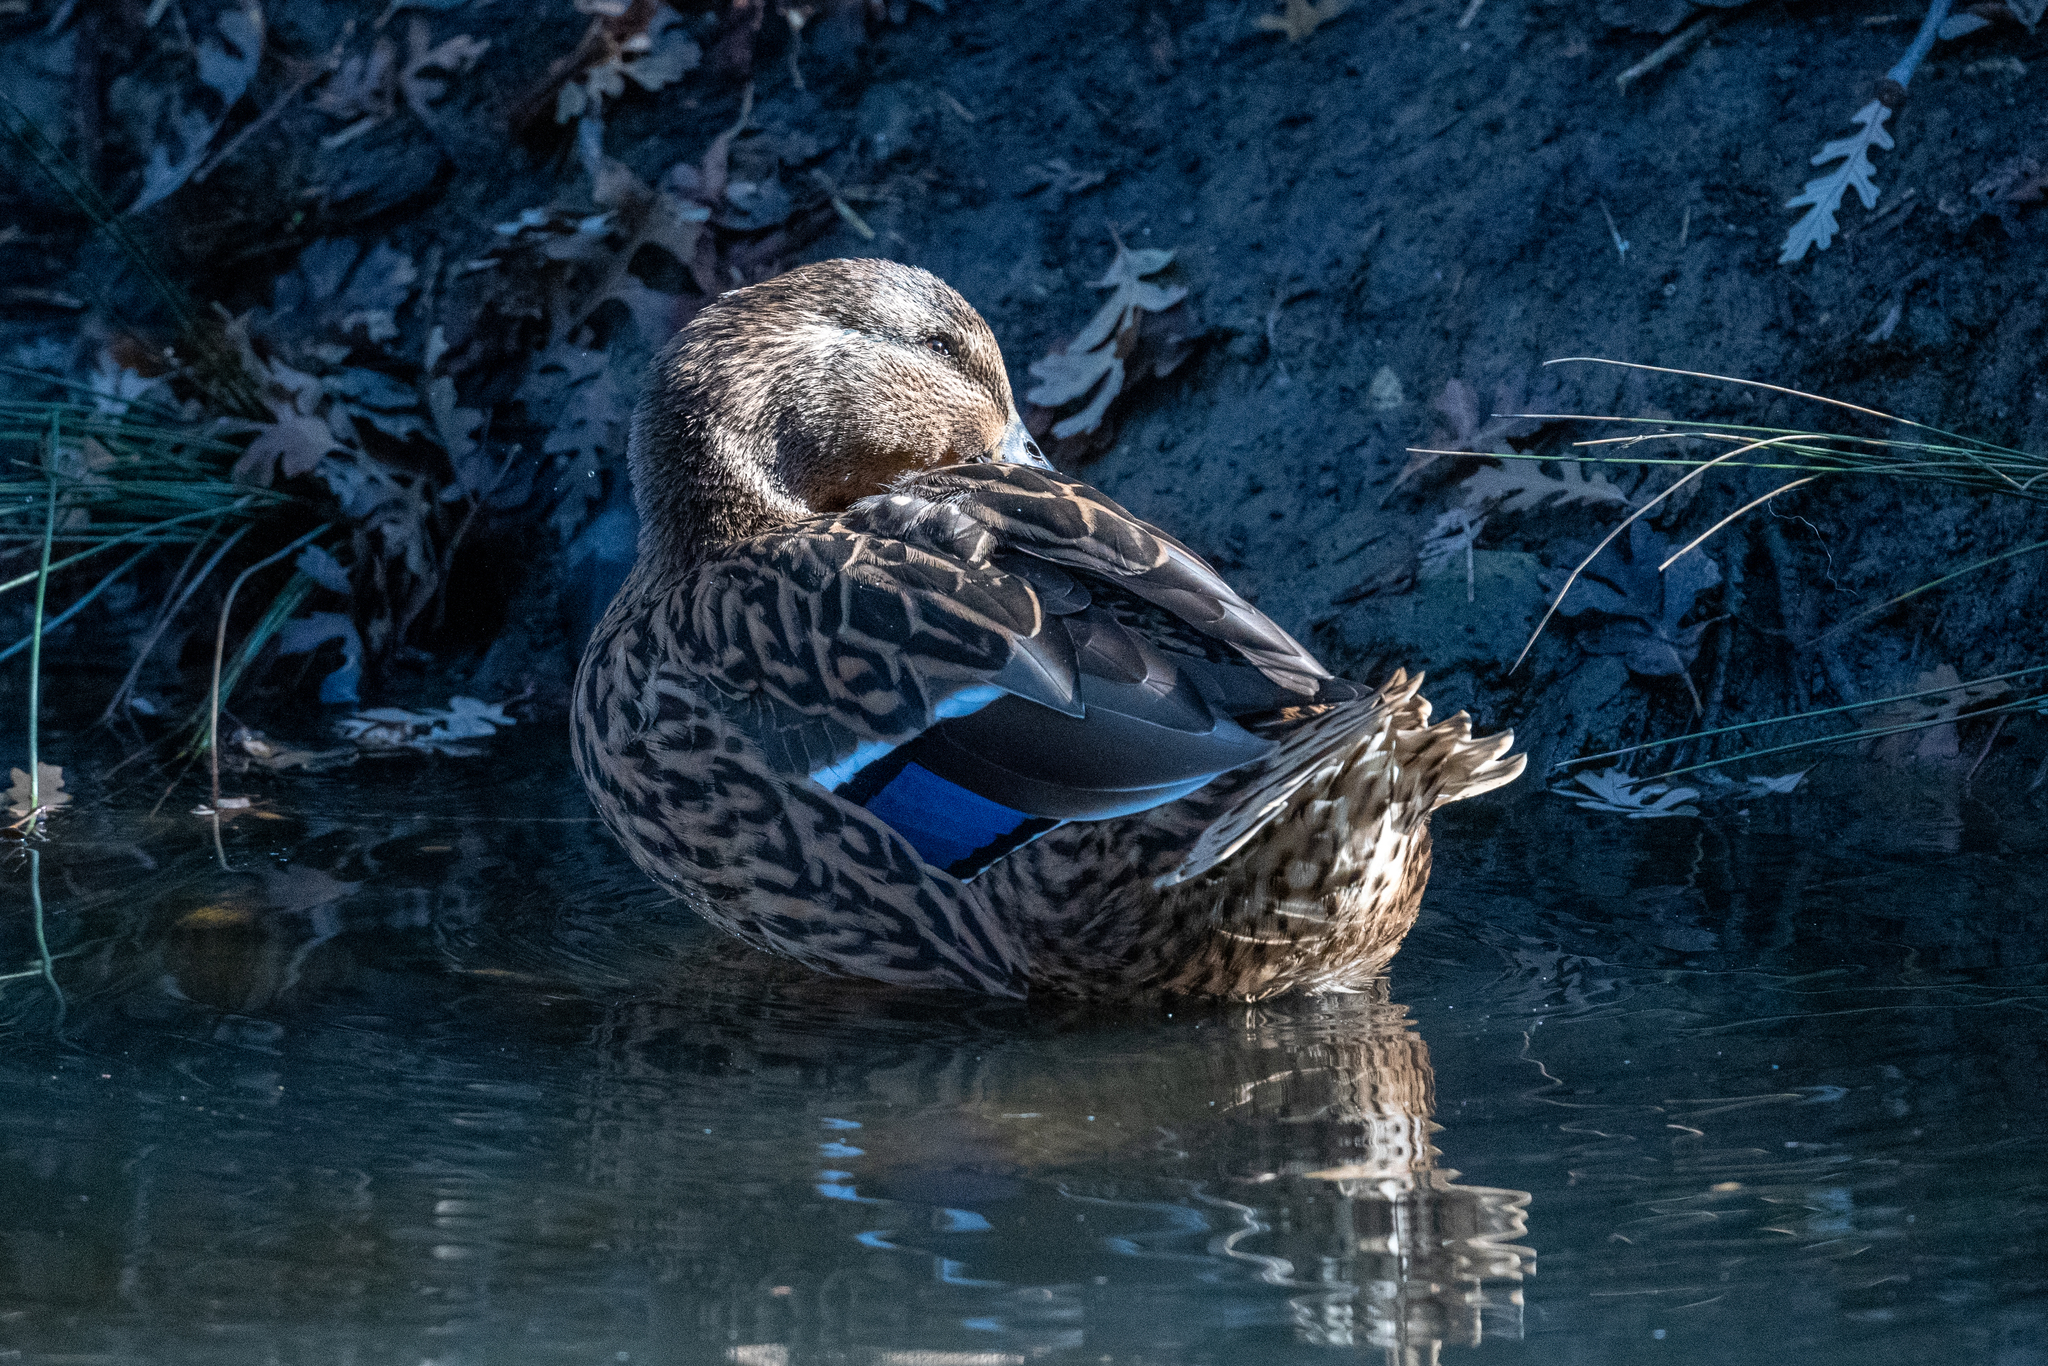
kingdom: Animalia
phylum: Chordata
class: Aves
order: Anseriformes
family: Anatidae
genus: Anas
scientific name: Anas platyrhynchos
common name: Mallard
